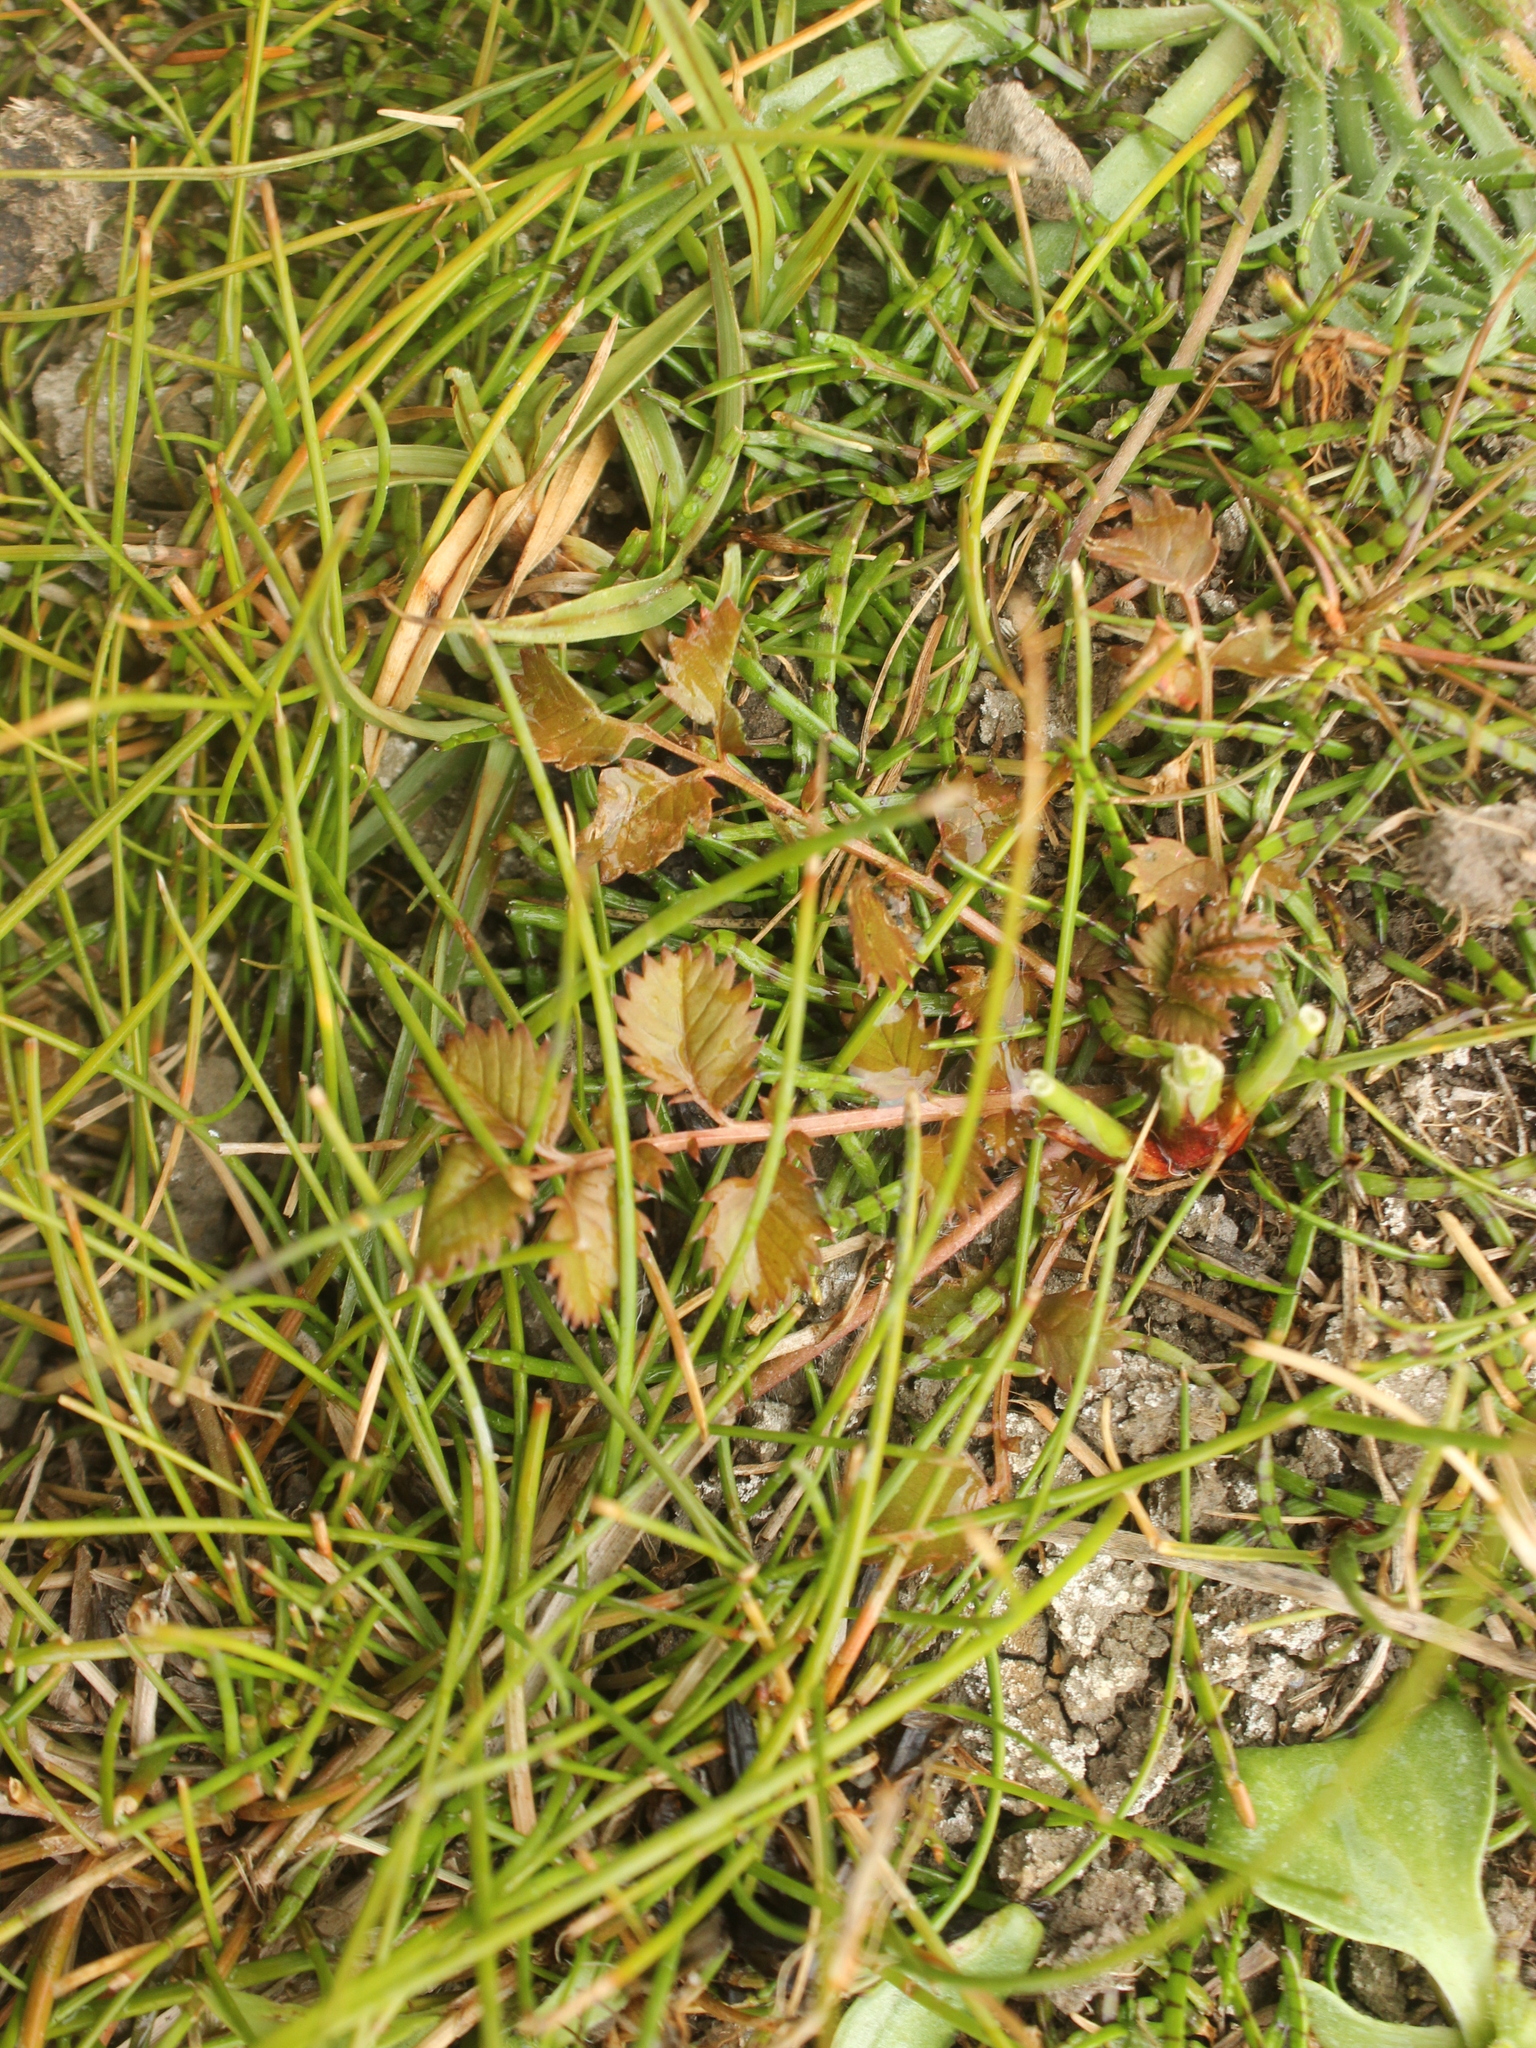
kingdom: Plantae
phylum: Tracheophyta
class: Magnoliopsida
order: Rosales
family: Rosaceae
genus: Argentina
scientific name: Argentina anserinoides
